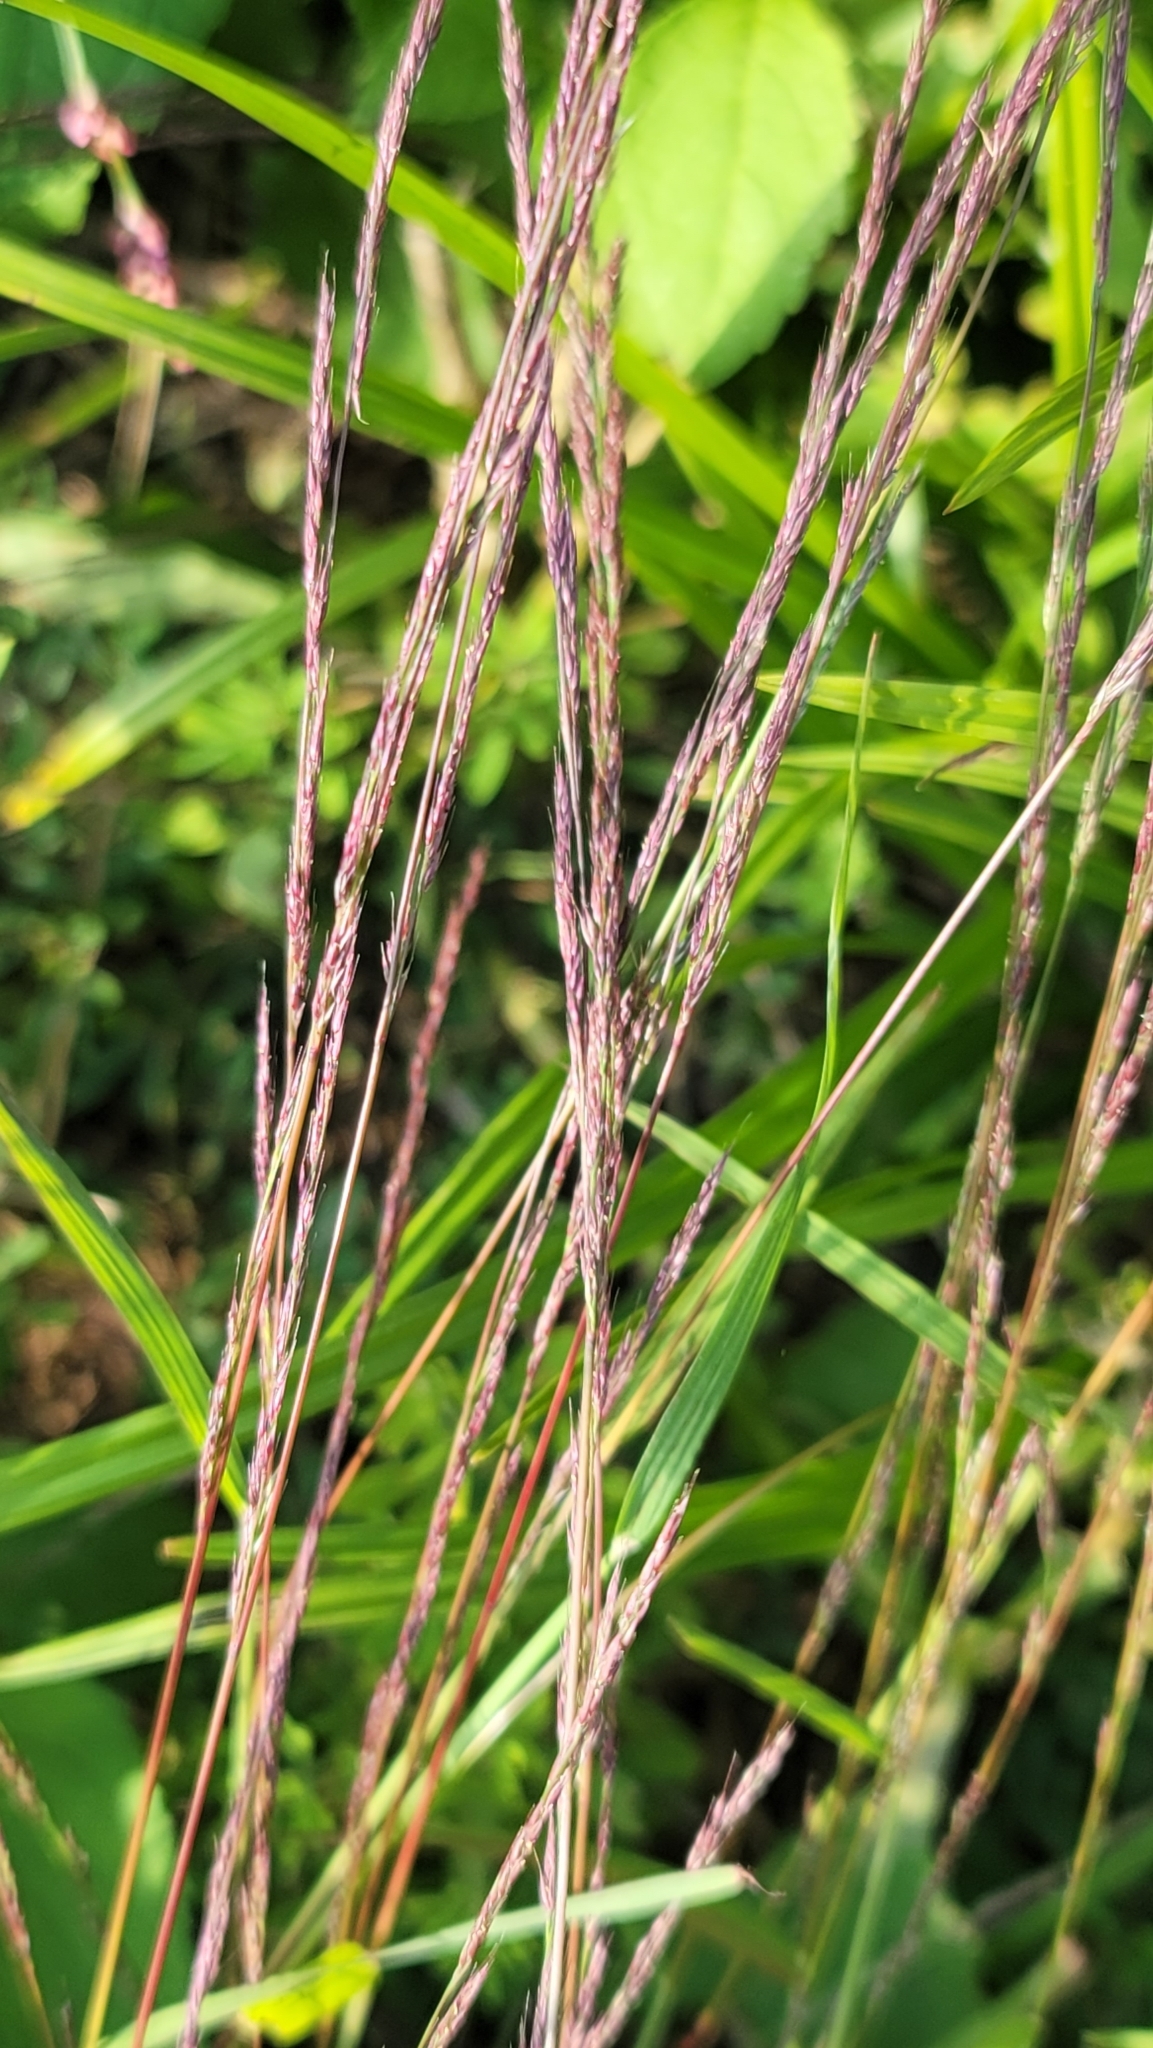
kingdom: Plantae
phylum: Tracheophyta
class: Liliopsida
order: Poales
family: Poaceae
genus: Muhlenbergia
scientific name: Muhlenbergia schreberi
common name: Nimblewill
